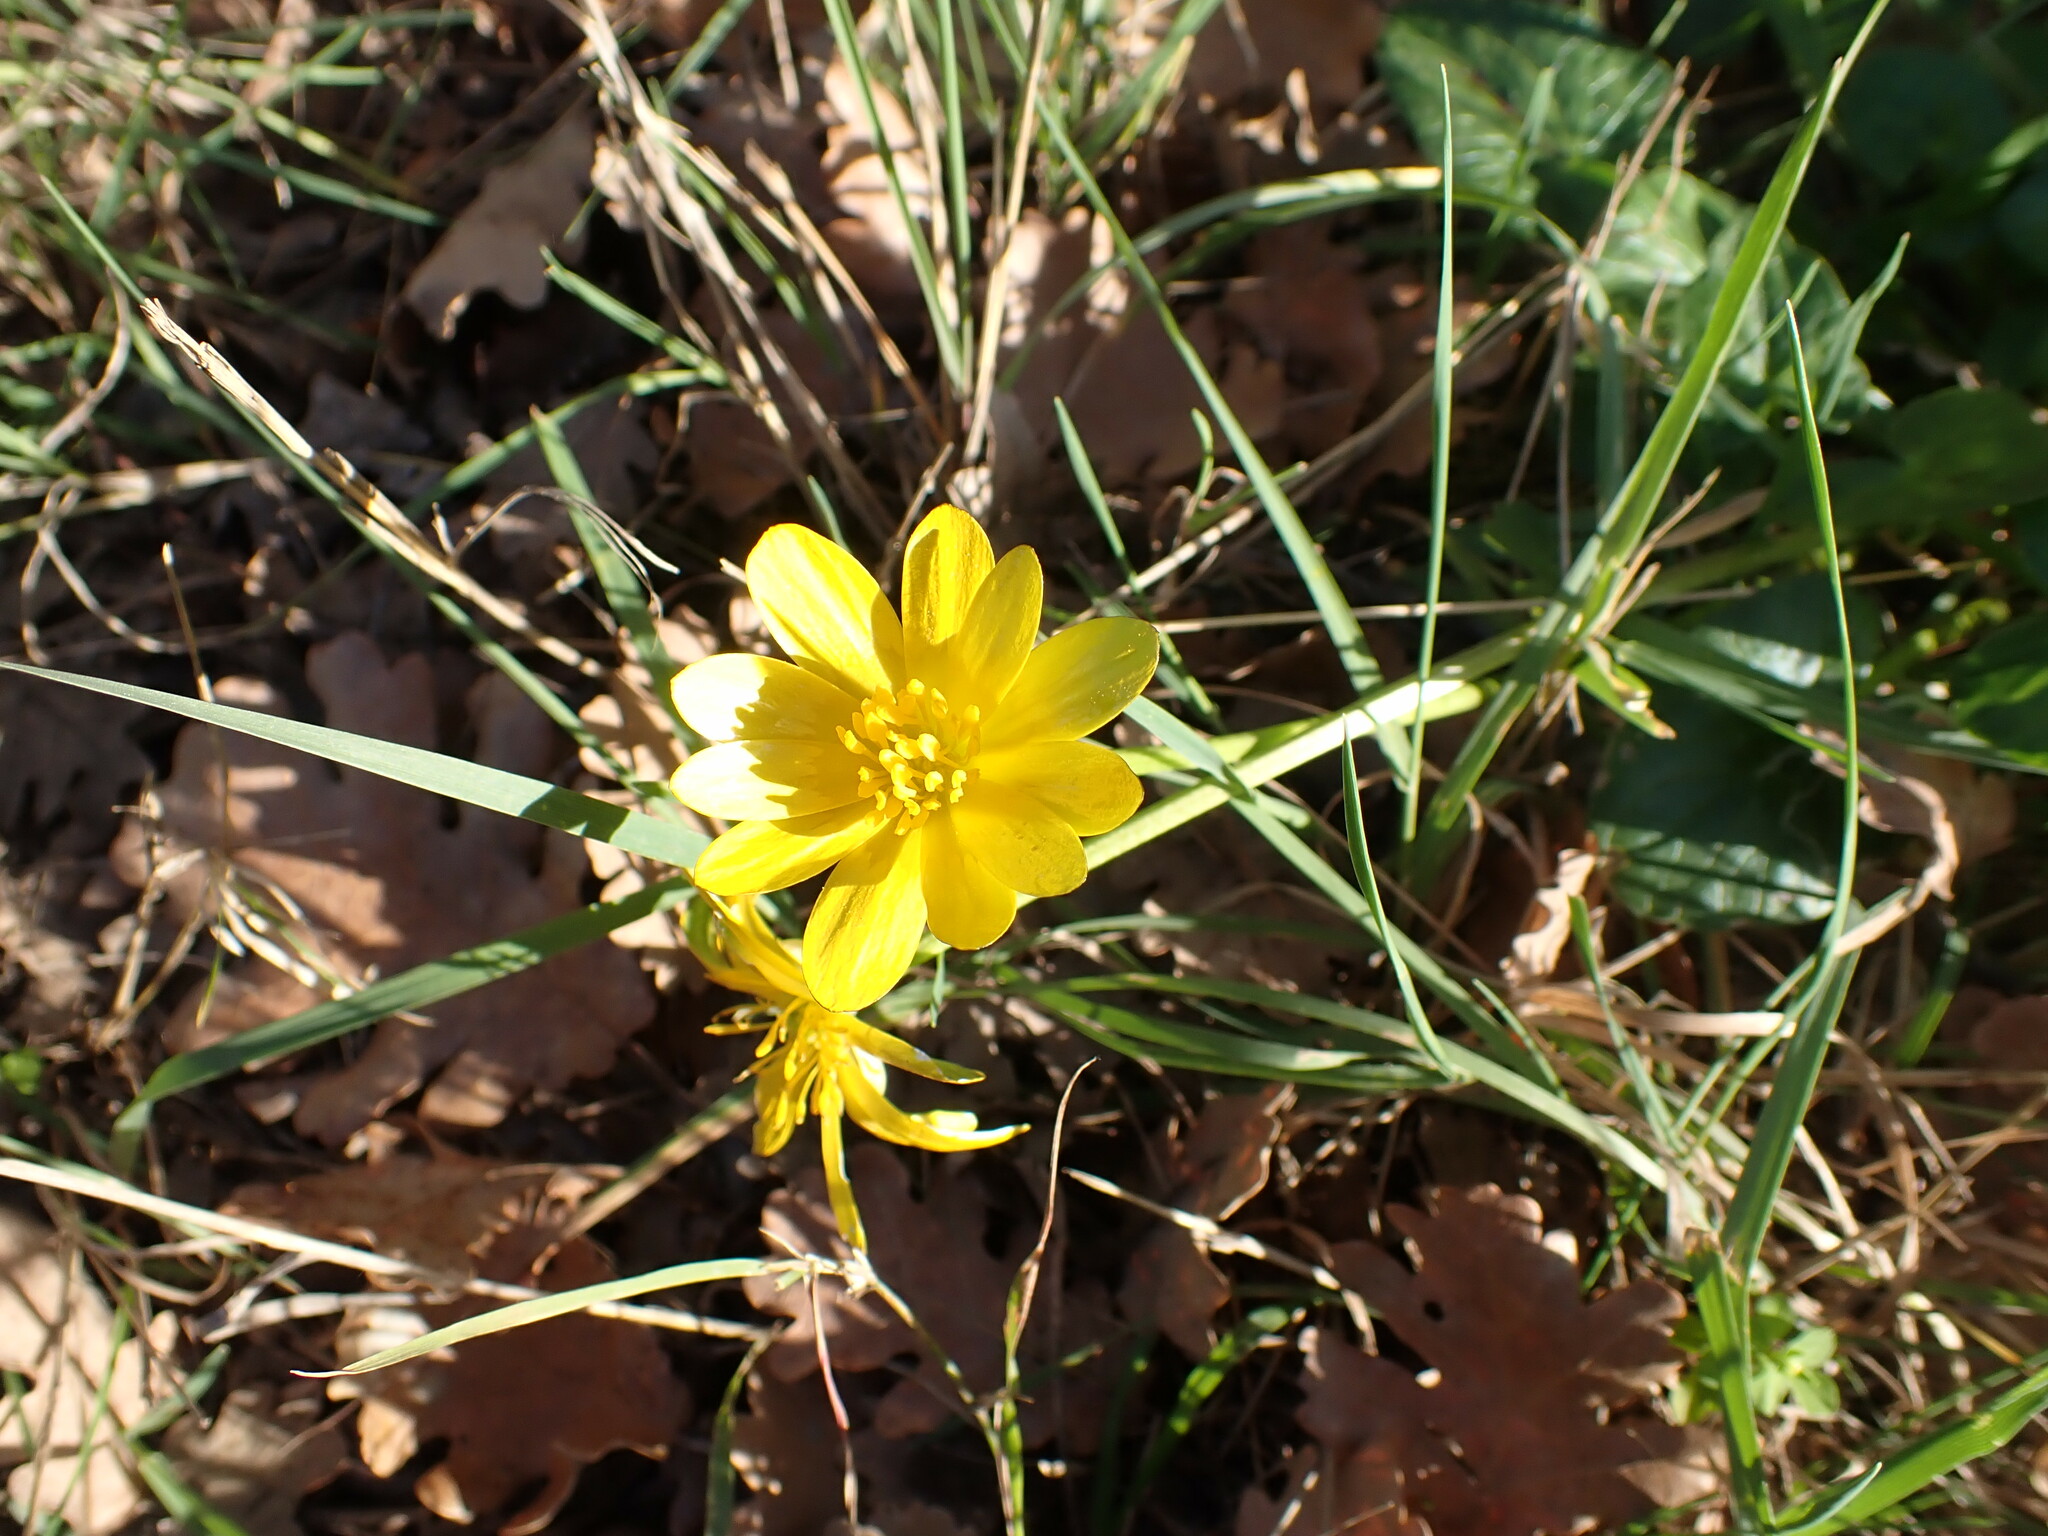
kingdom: Plantae
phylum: Tracheophyta
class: Magnoliopsida
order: Ranunculales
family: Ranunculaceae
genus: Ficaria
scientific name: Ficaria verna
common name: Lesser celandine
